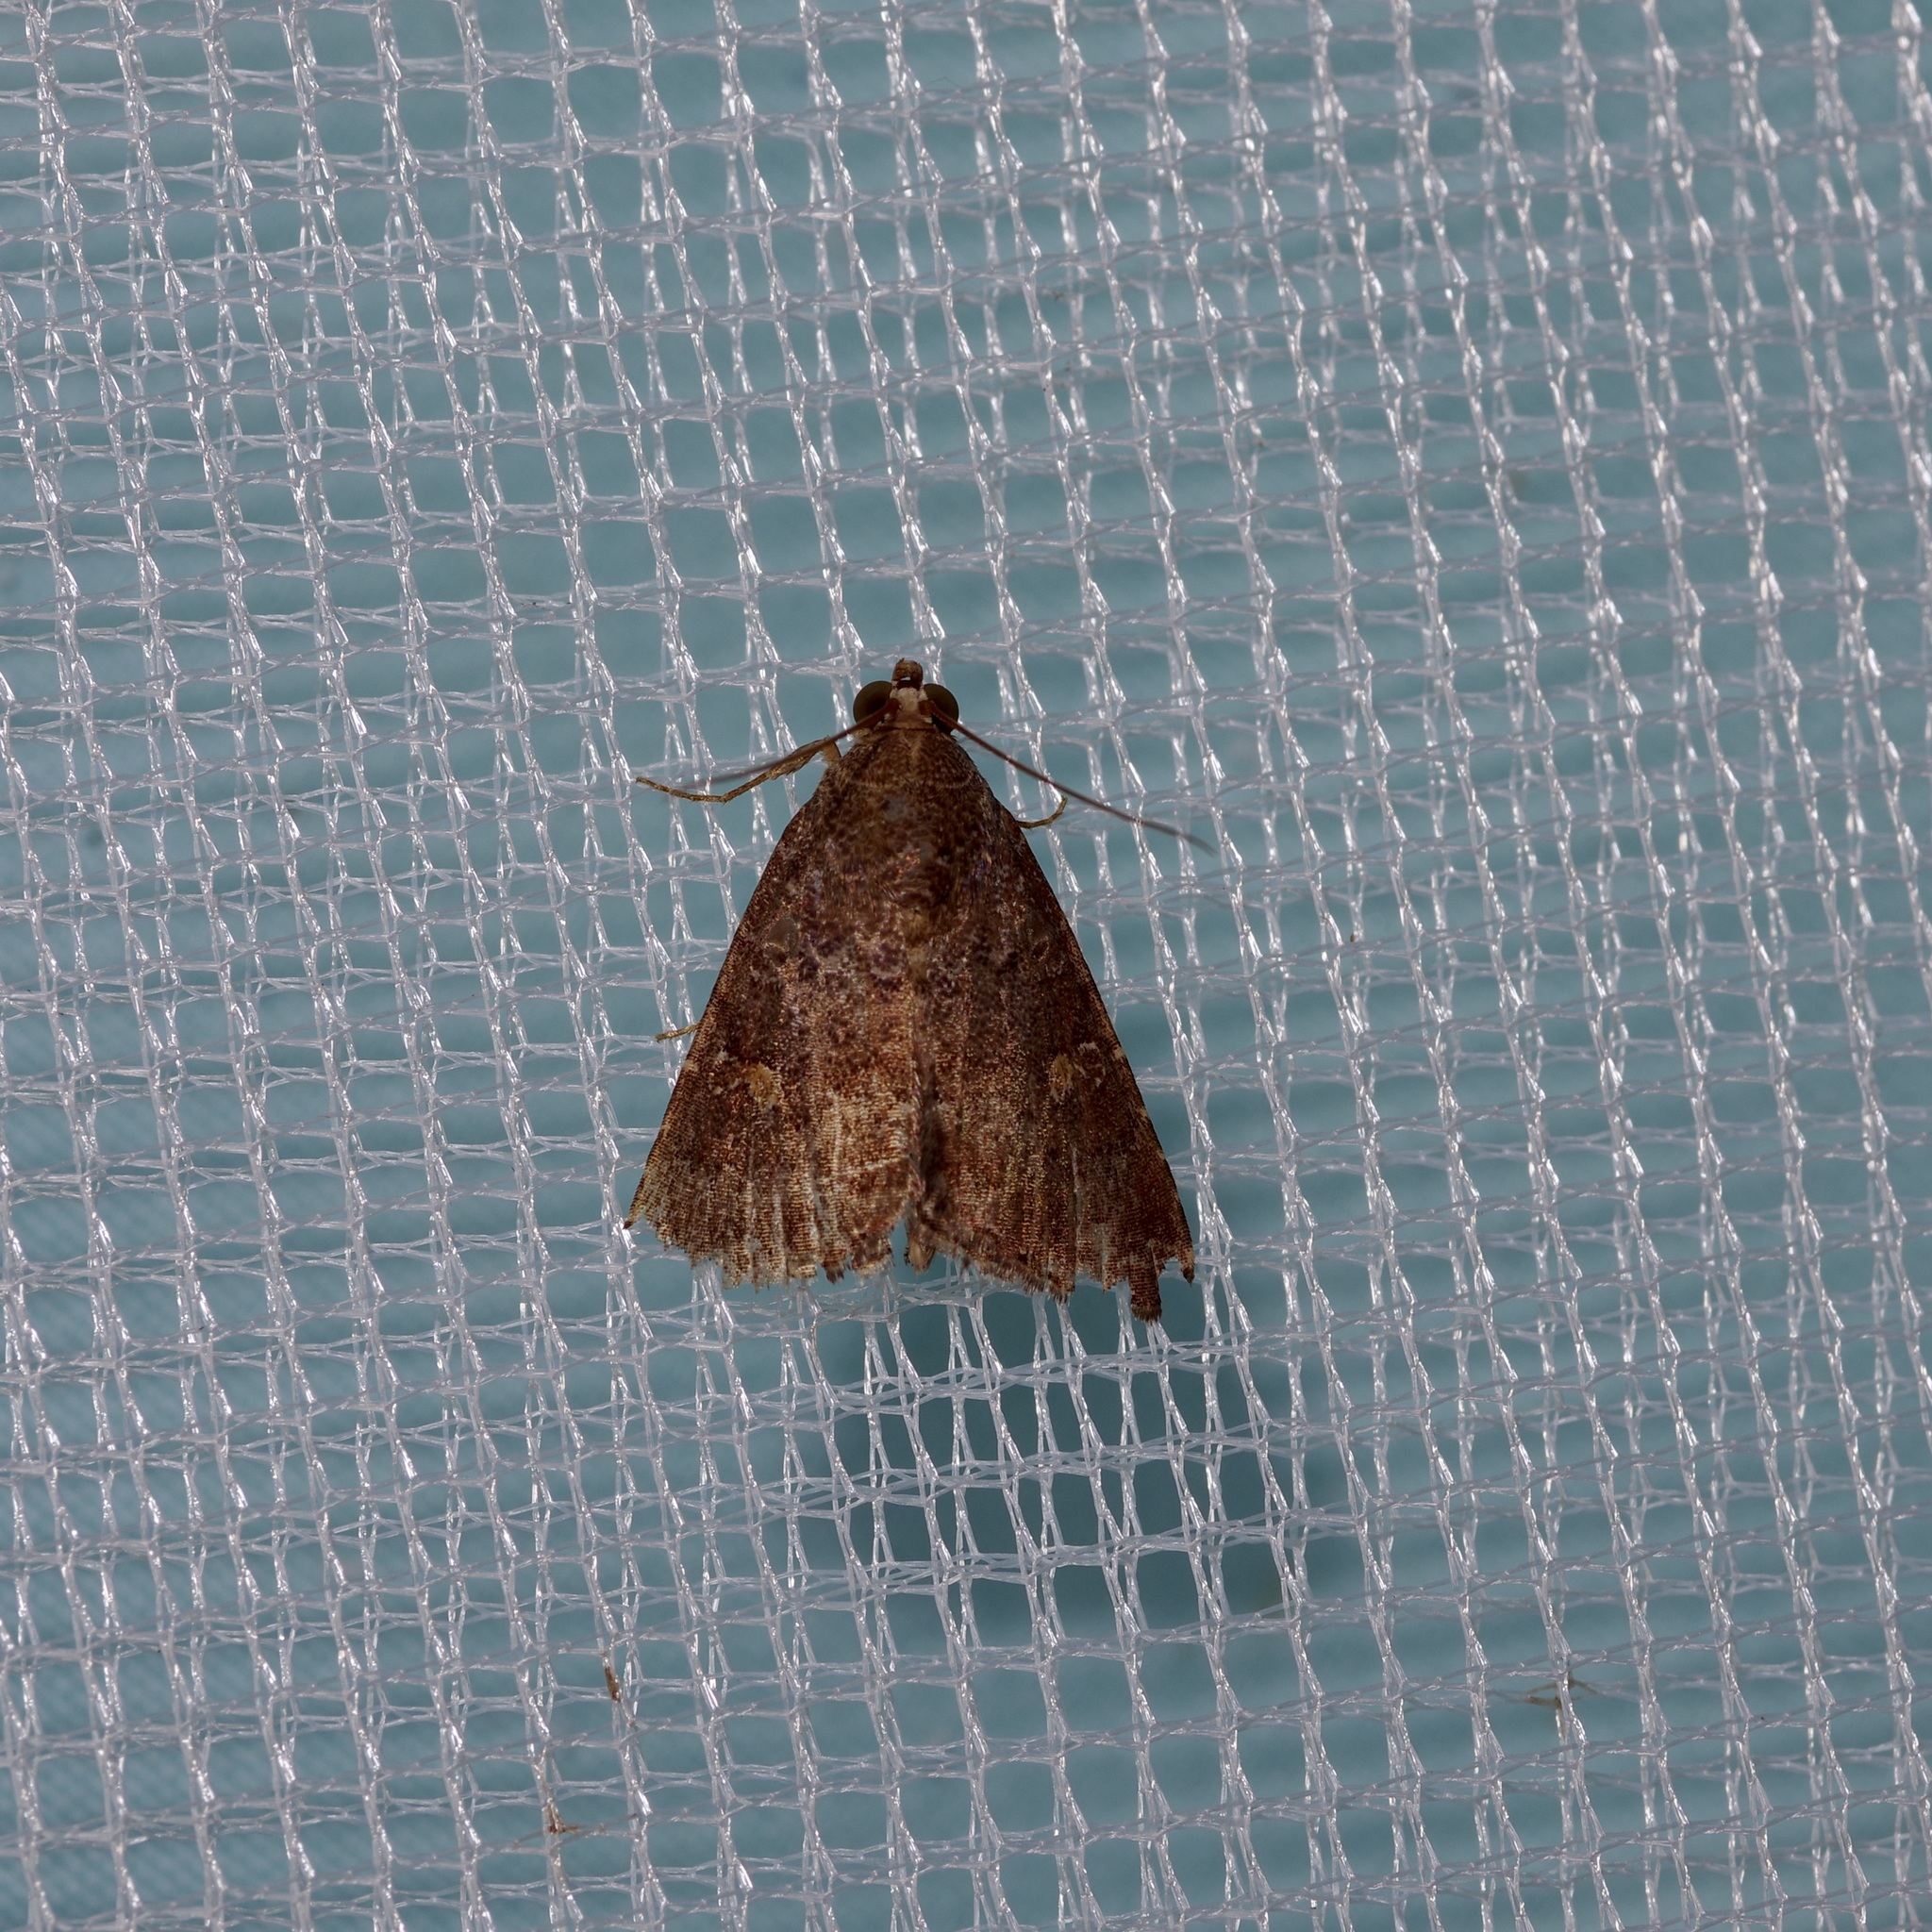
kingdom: Animalia
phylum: Arthropoda
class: Insecta
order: Lepidoptera
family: Noctuidae
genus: Amyna
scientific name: Amyna stricta
